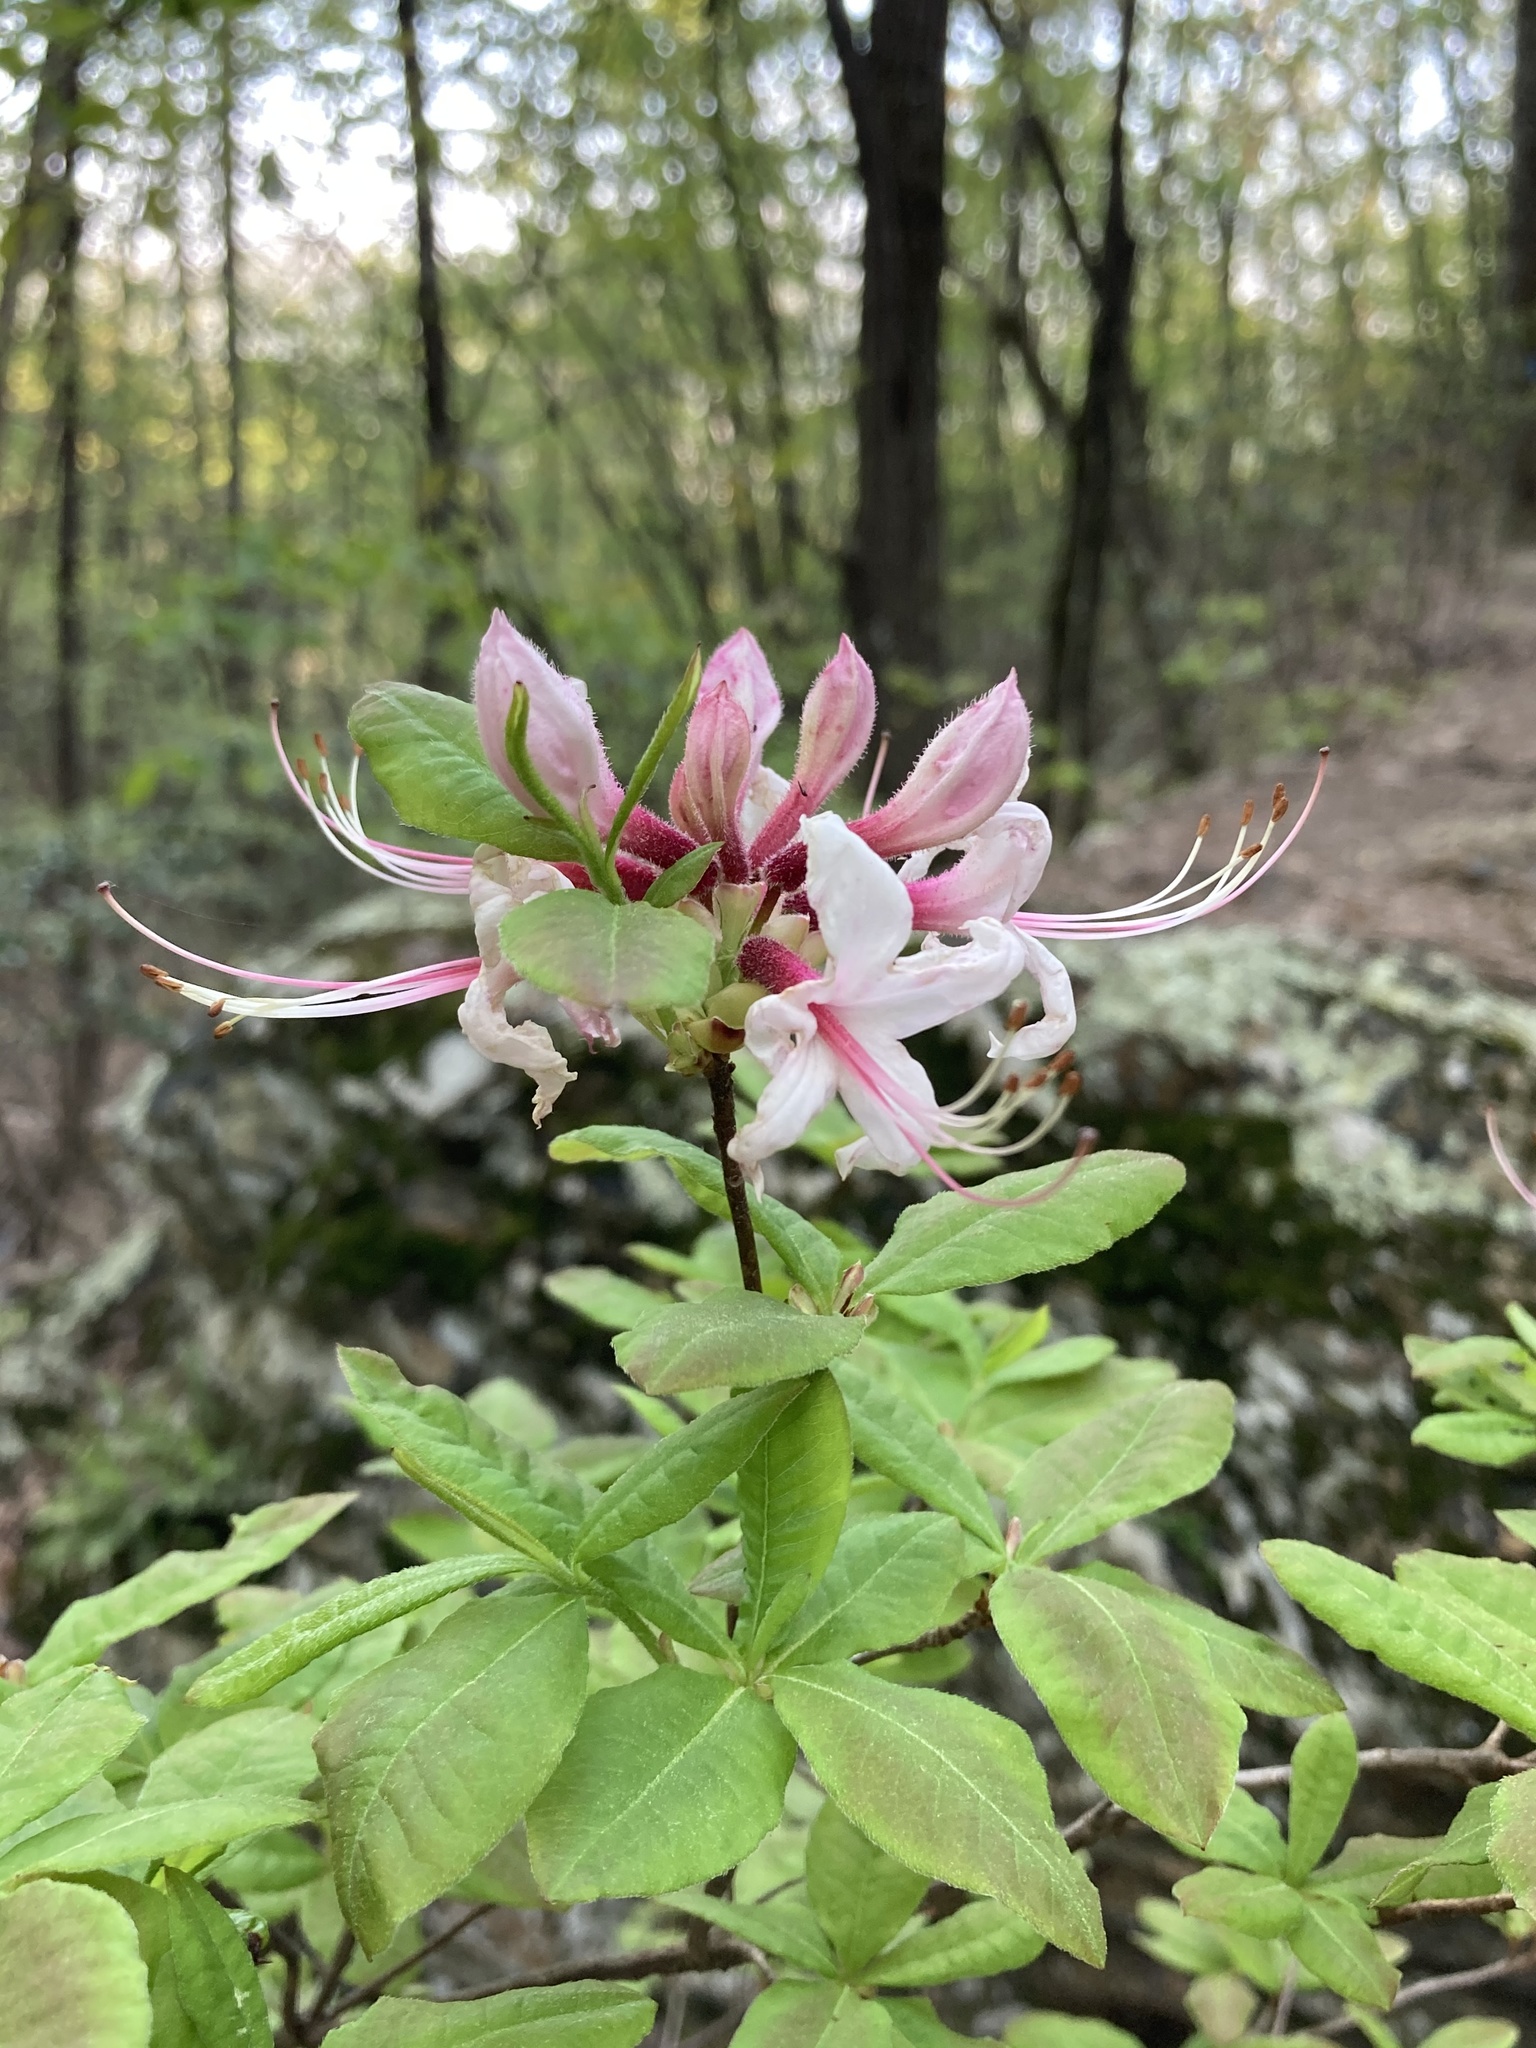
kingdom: Plantae
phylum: Tracheophyta
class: Magnoliopsida
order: Ericales
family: Ericaceae
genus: Rhododendron
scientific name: Rhododendron periclymenoides
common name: Election-pink
